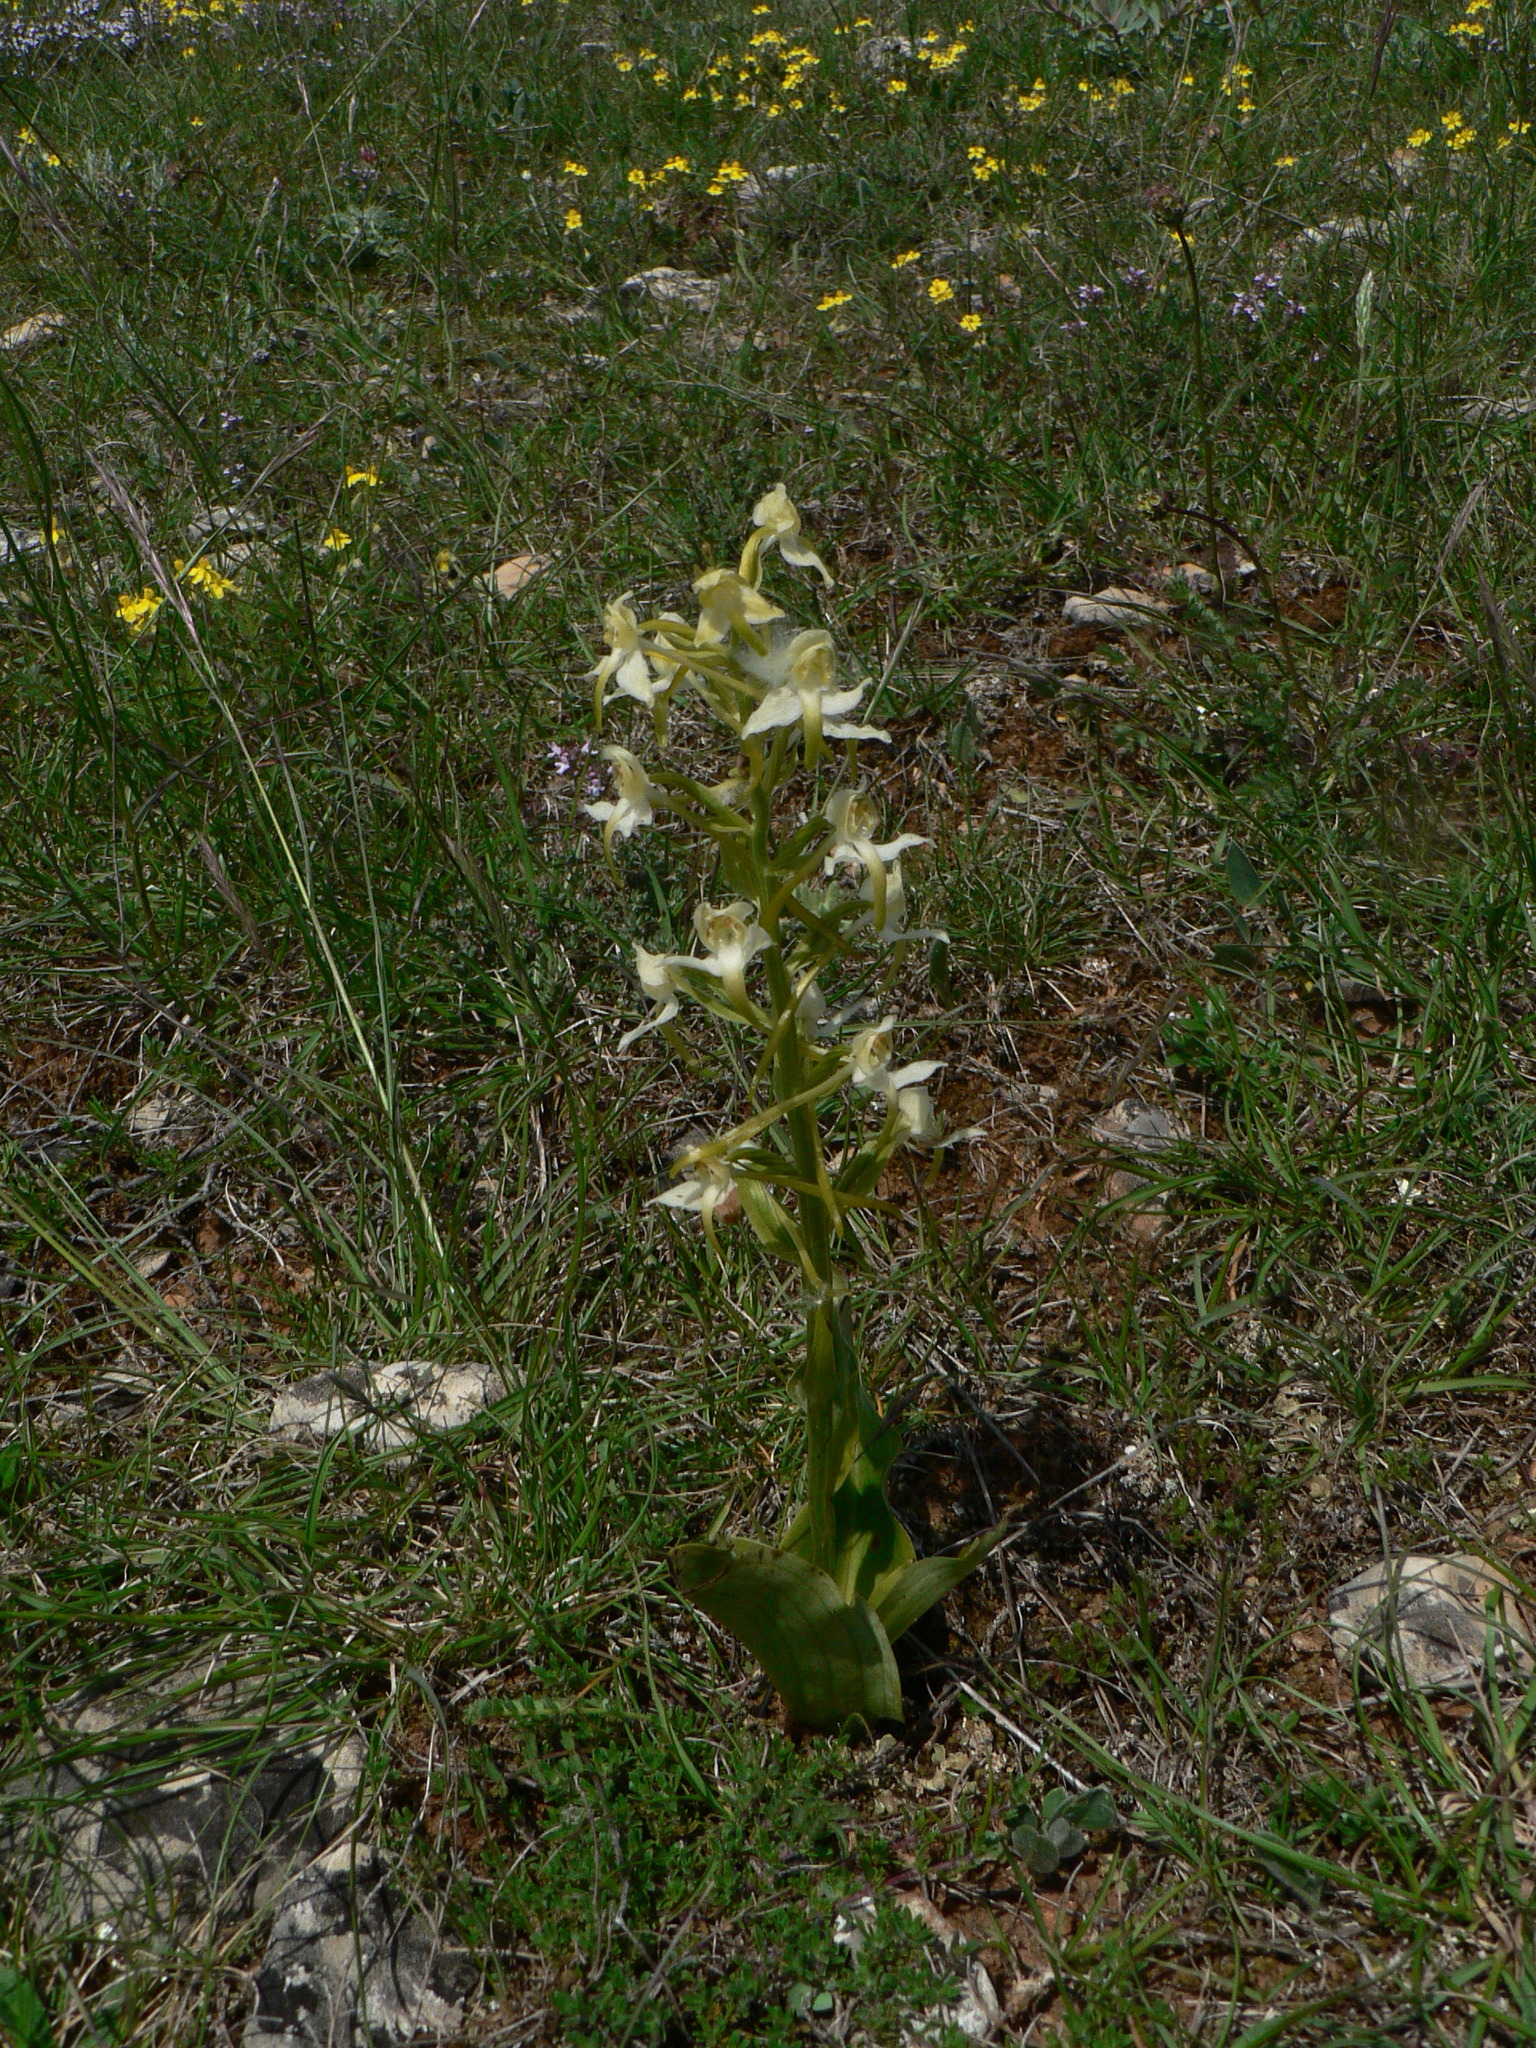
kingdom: Plantae
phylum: Tracheophyta
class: Liliopsida
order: Asparagales
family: Orchidaceae
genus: Platanthera
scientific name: Platanthera chlorantha
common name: Greater butterfly-orchid
